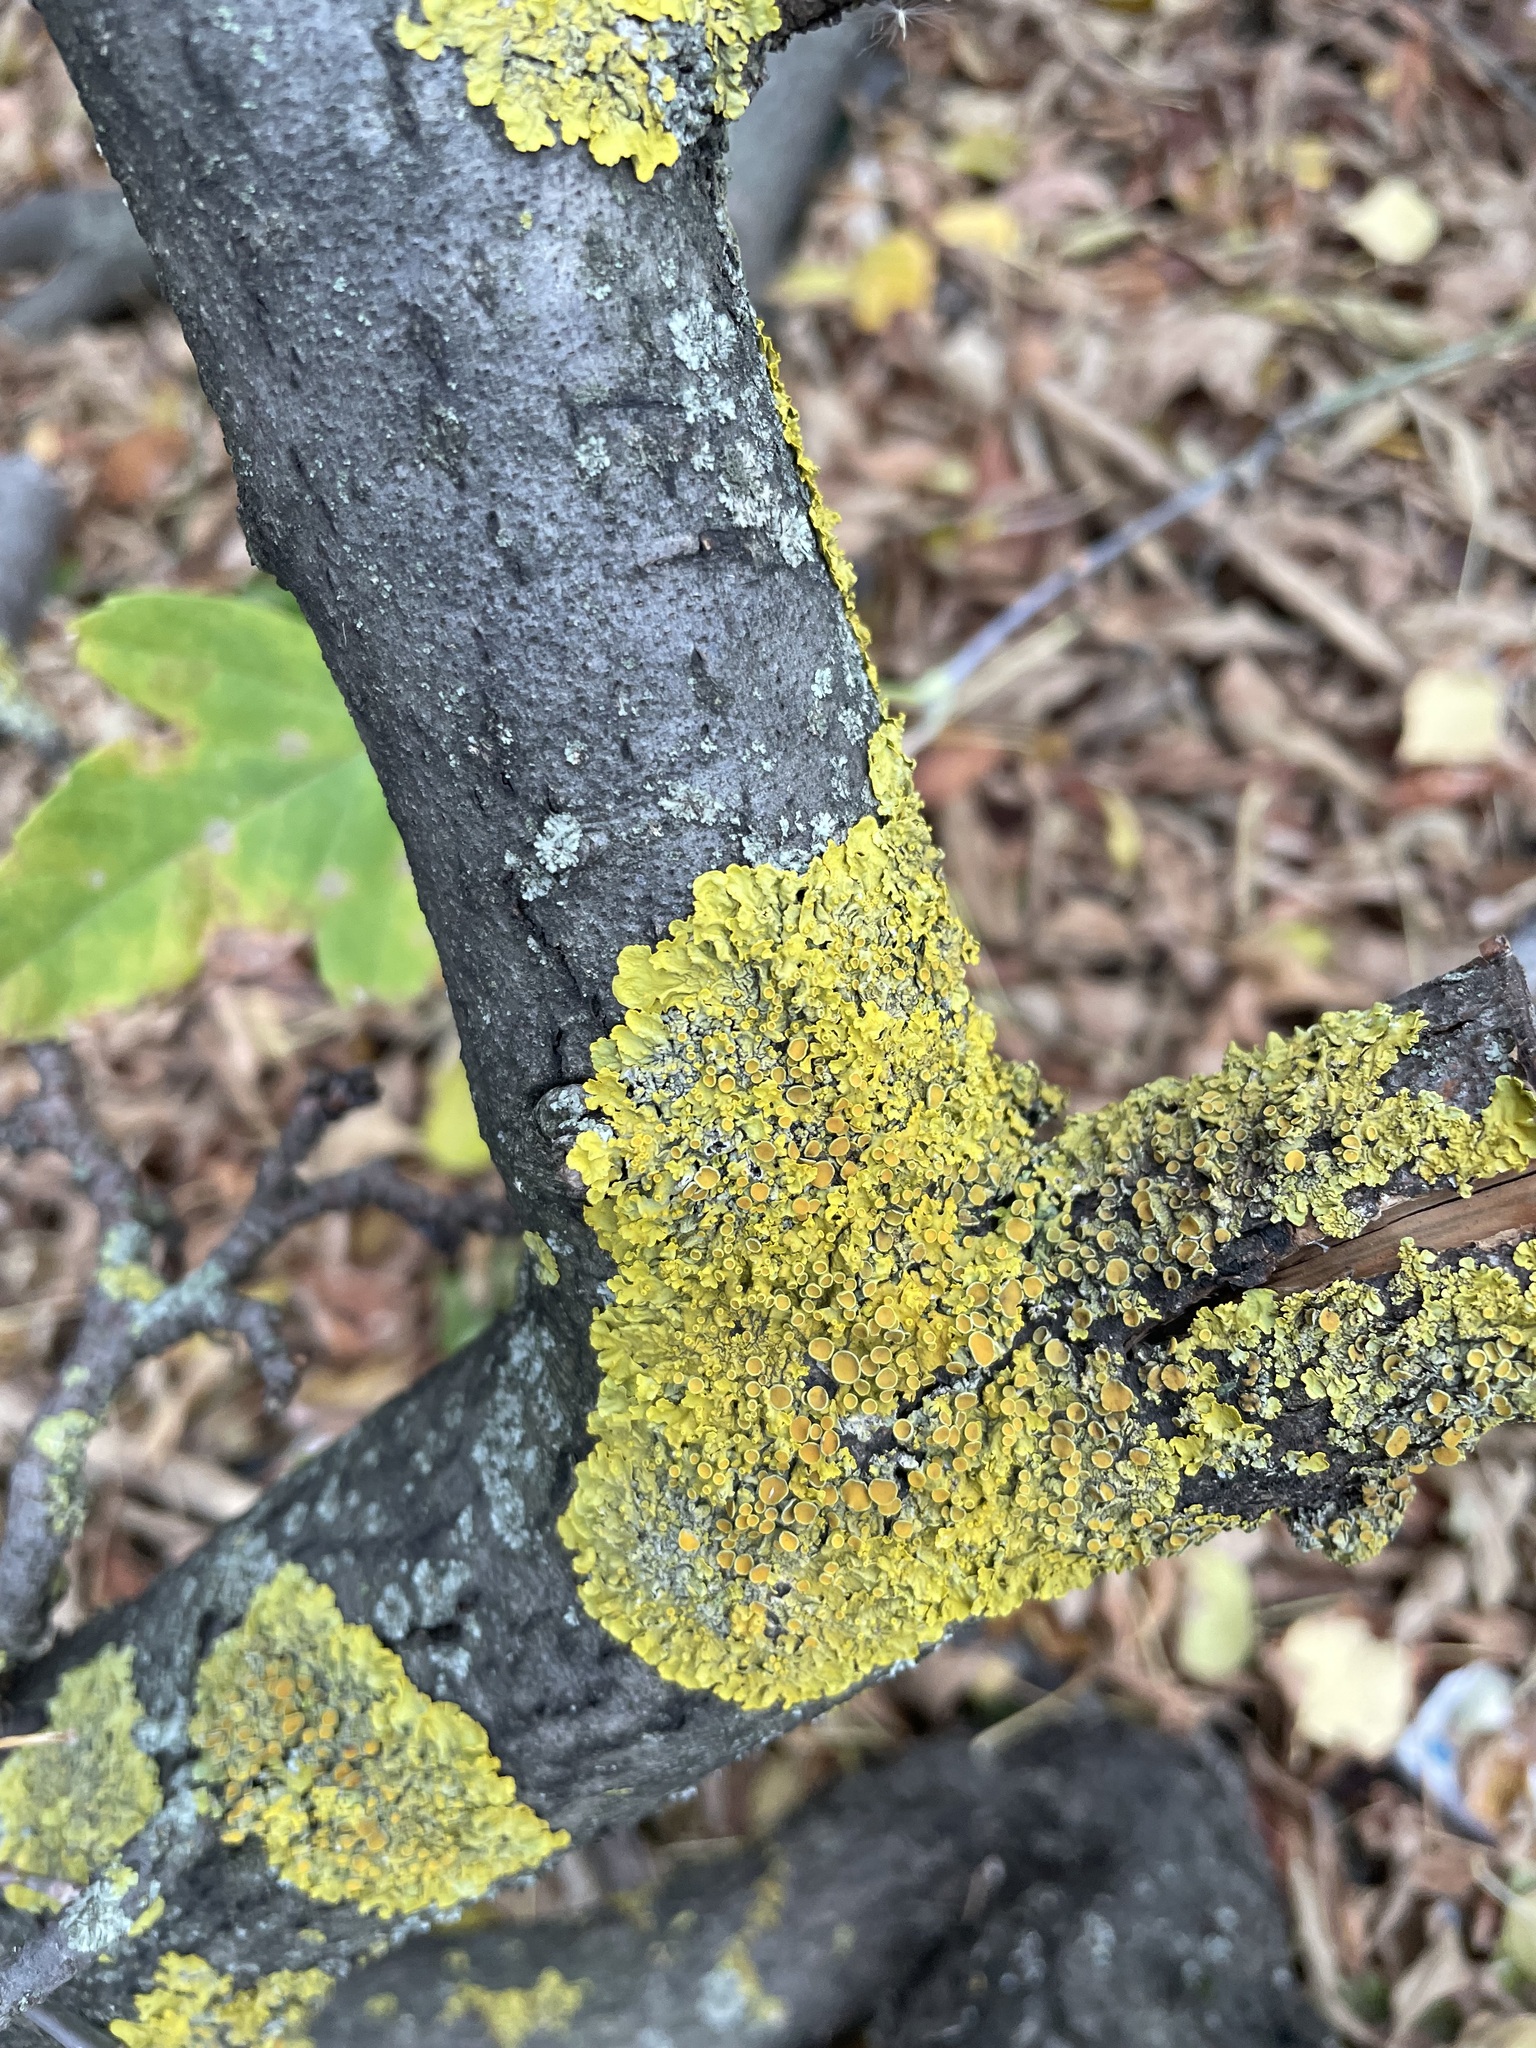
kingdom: Fungi
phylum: Ascomycota
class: Lecanoromycetes
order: Teloschistales
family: Teloschistaceae
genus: Xanthoria
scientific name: Xanthoria parietina
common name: Common orange lichen
